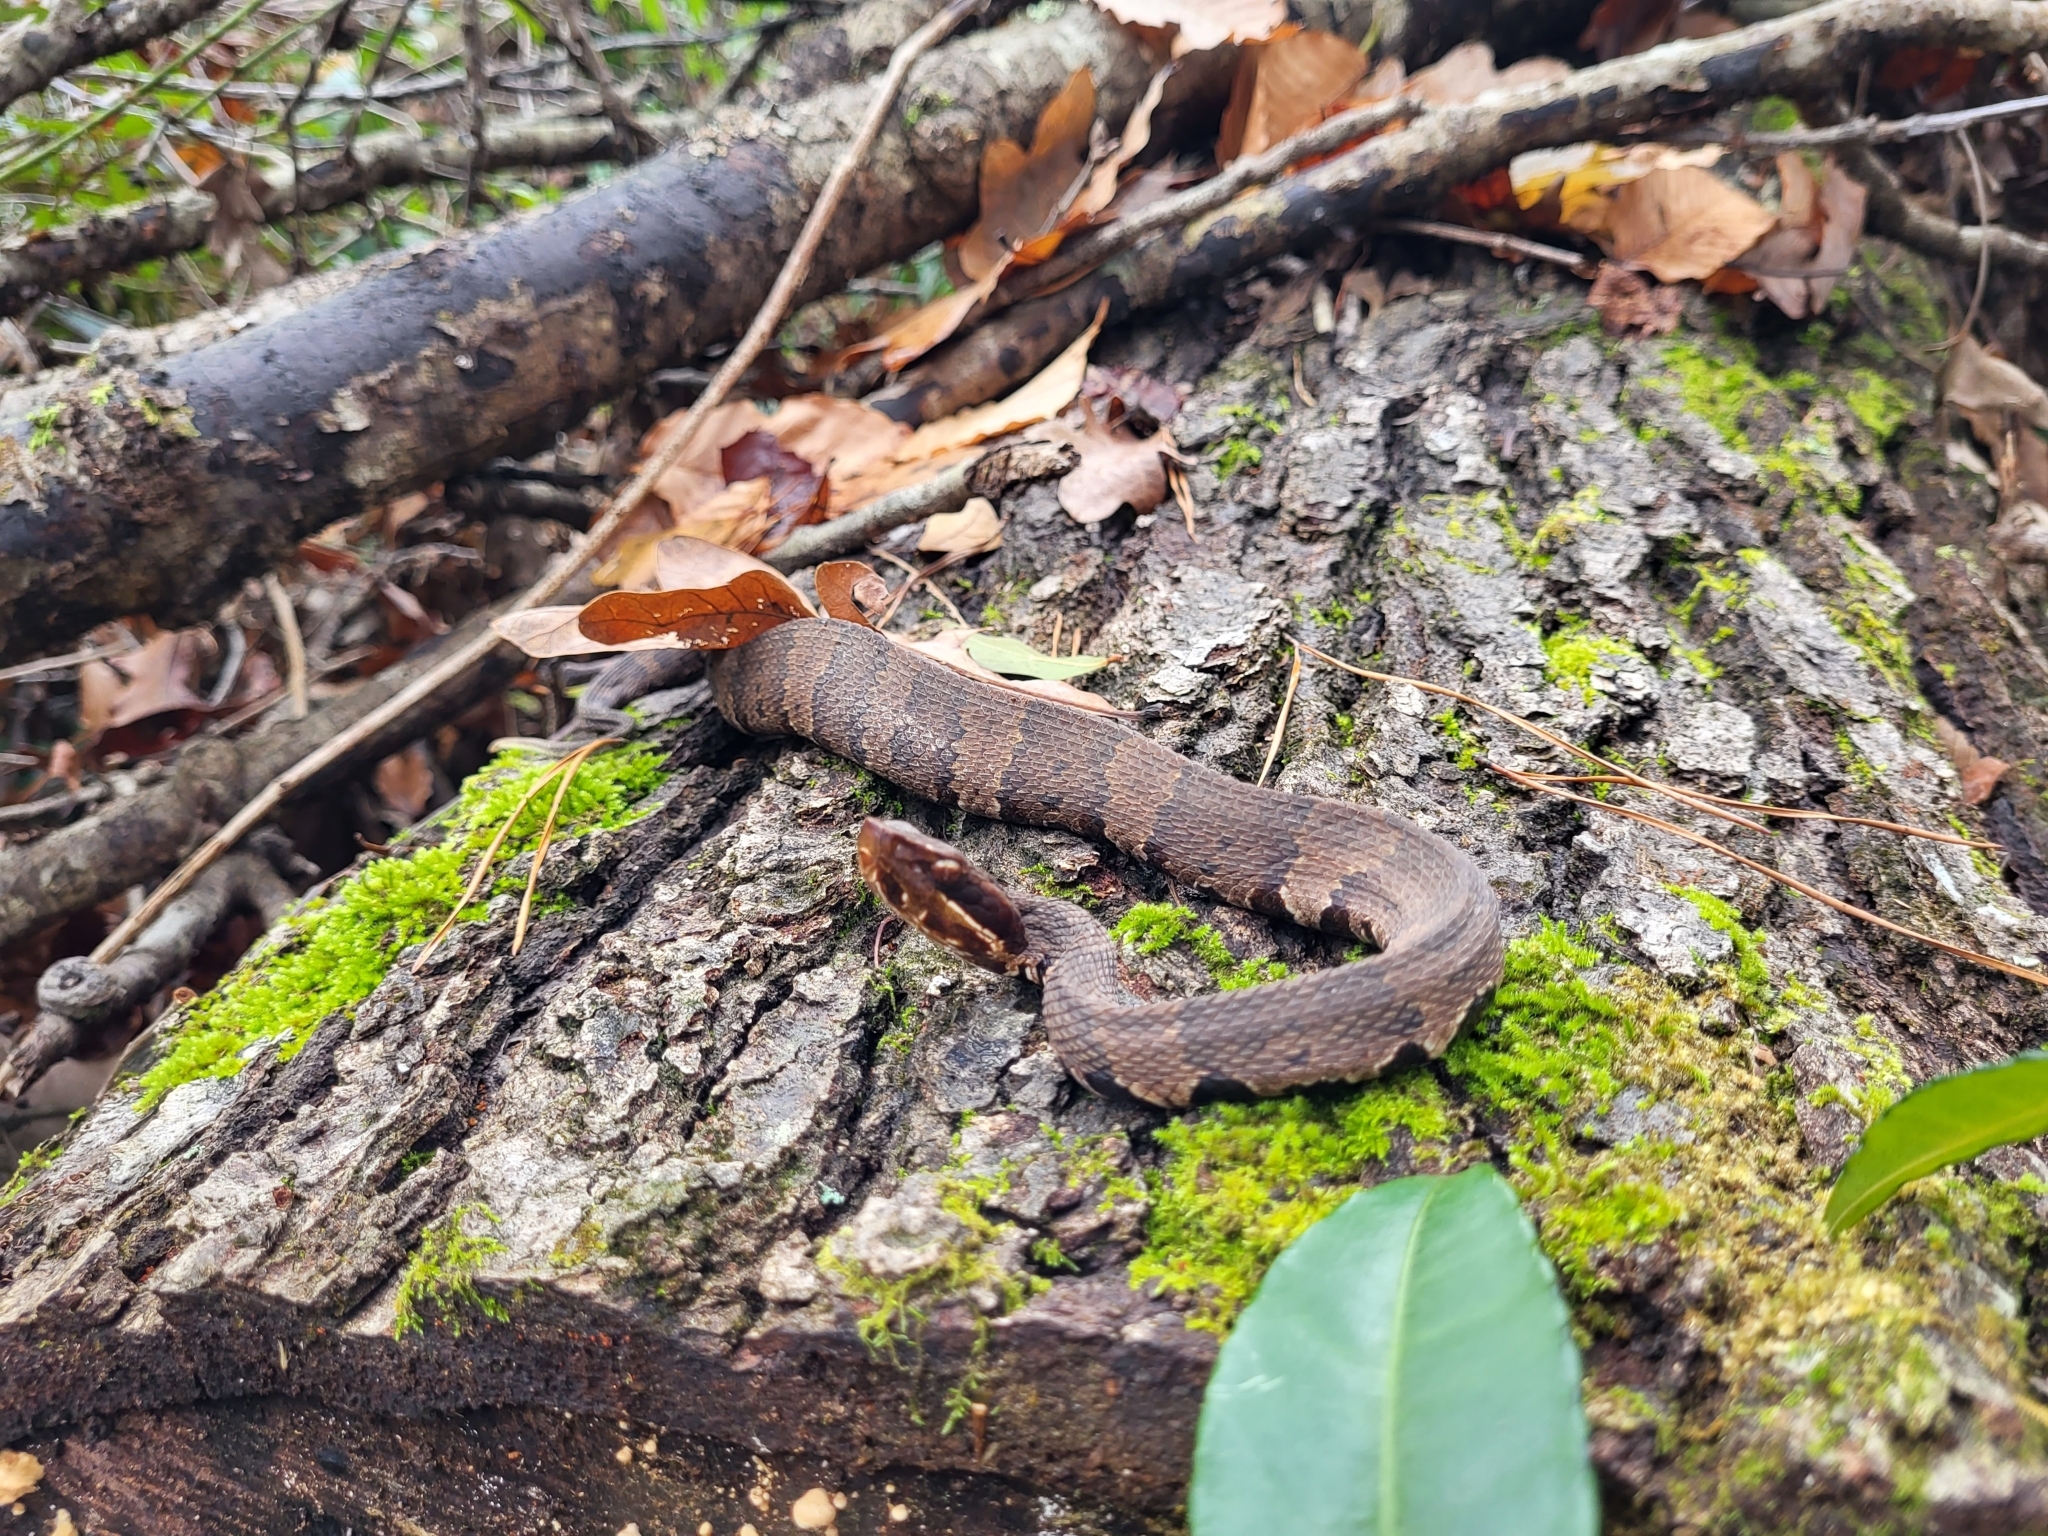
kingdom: Animalia
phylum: Chordata
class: Squamata
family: Viperidae
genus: Agkistrodon
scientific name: Agkistrodon piscivorus
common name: Cottonmouth
